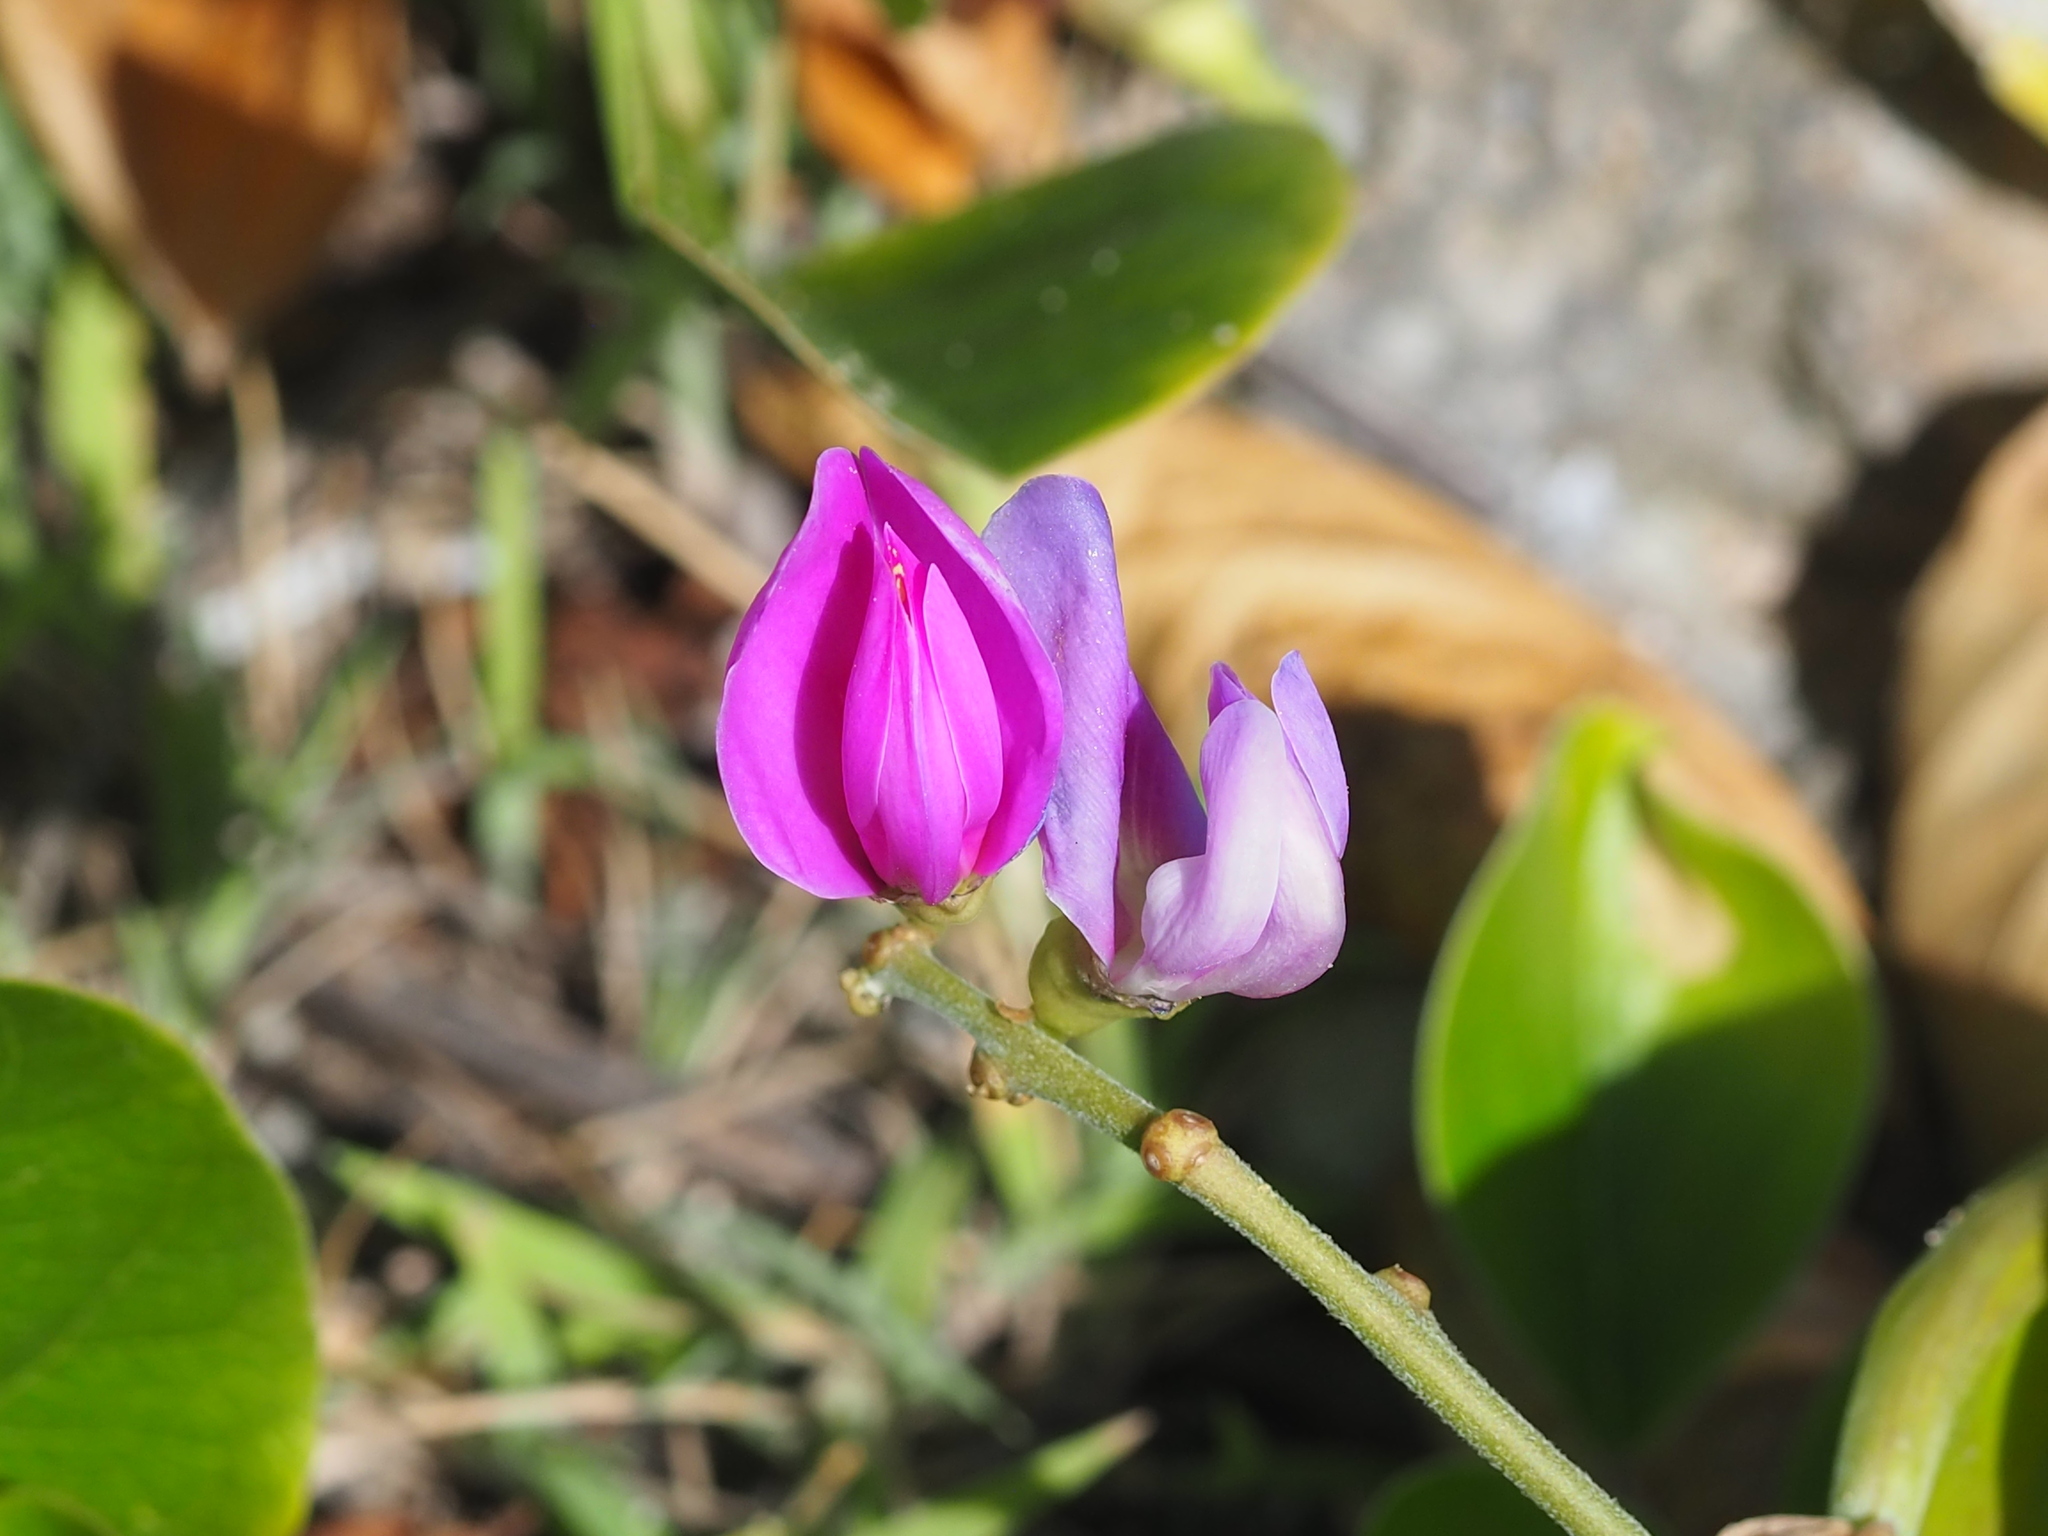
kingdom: Plantae
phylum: Tracheophyta
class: Magnoliopsida
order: Fabales
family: Fabaceae
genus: Canavalia
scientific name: Canavalia rosea
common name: Beach-bean
